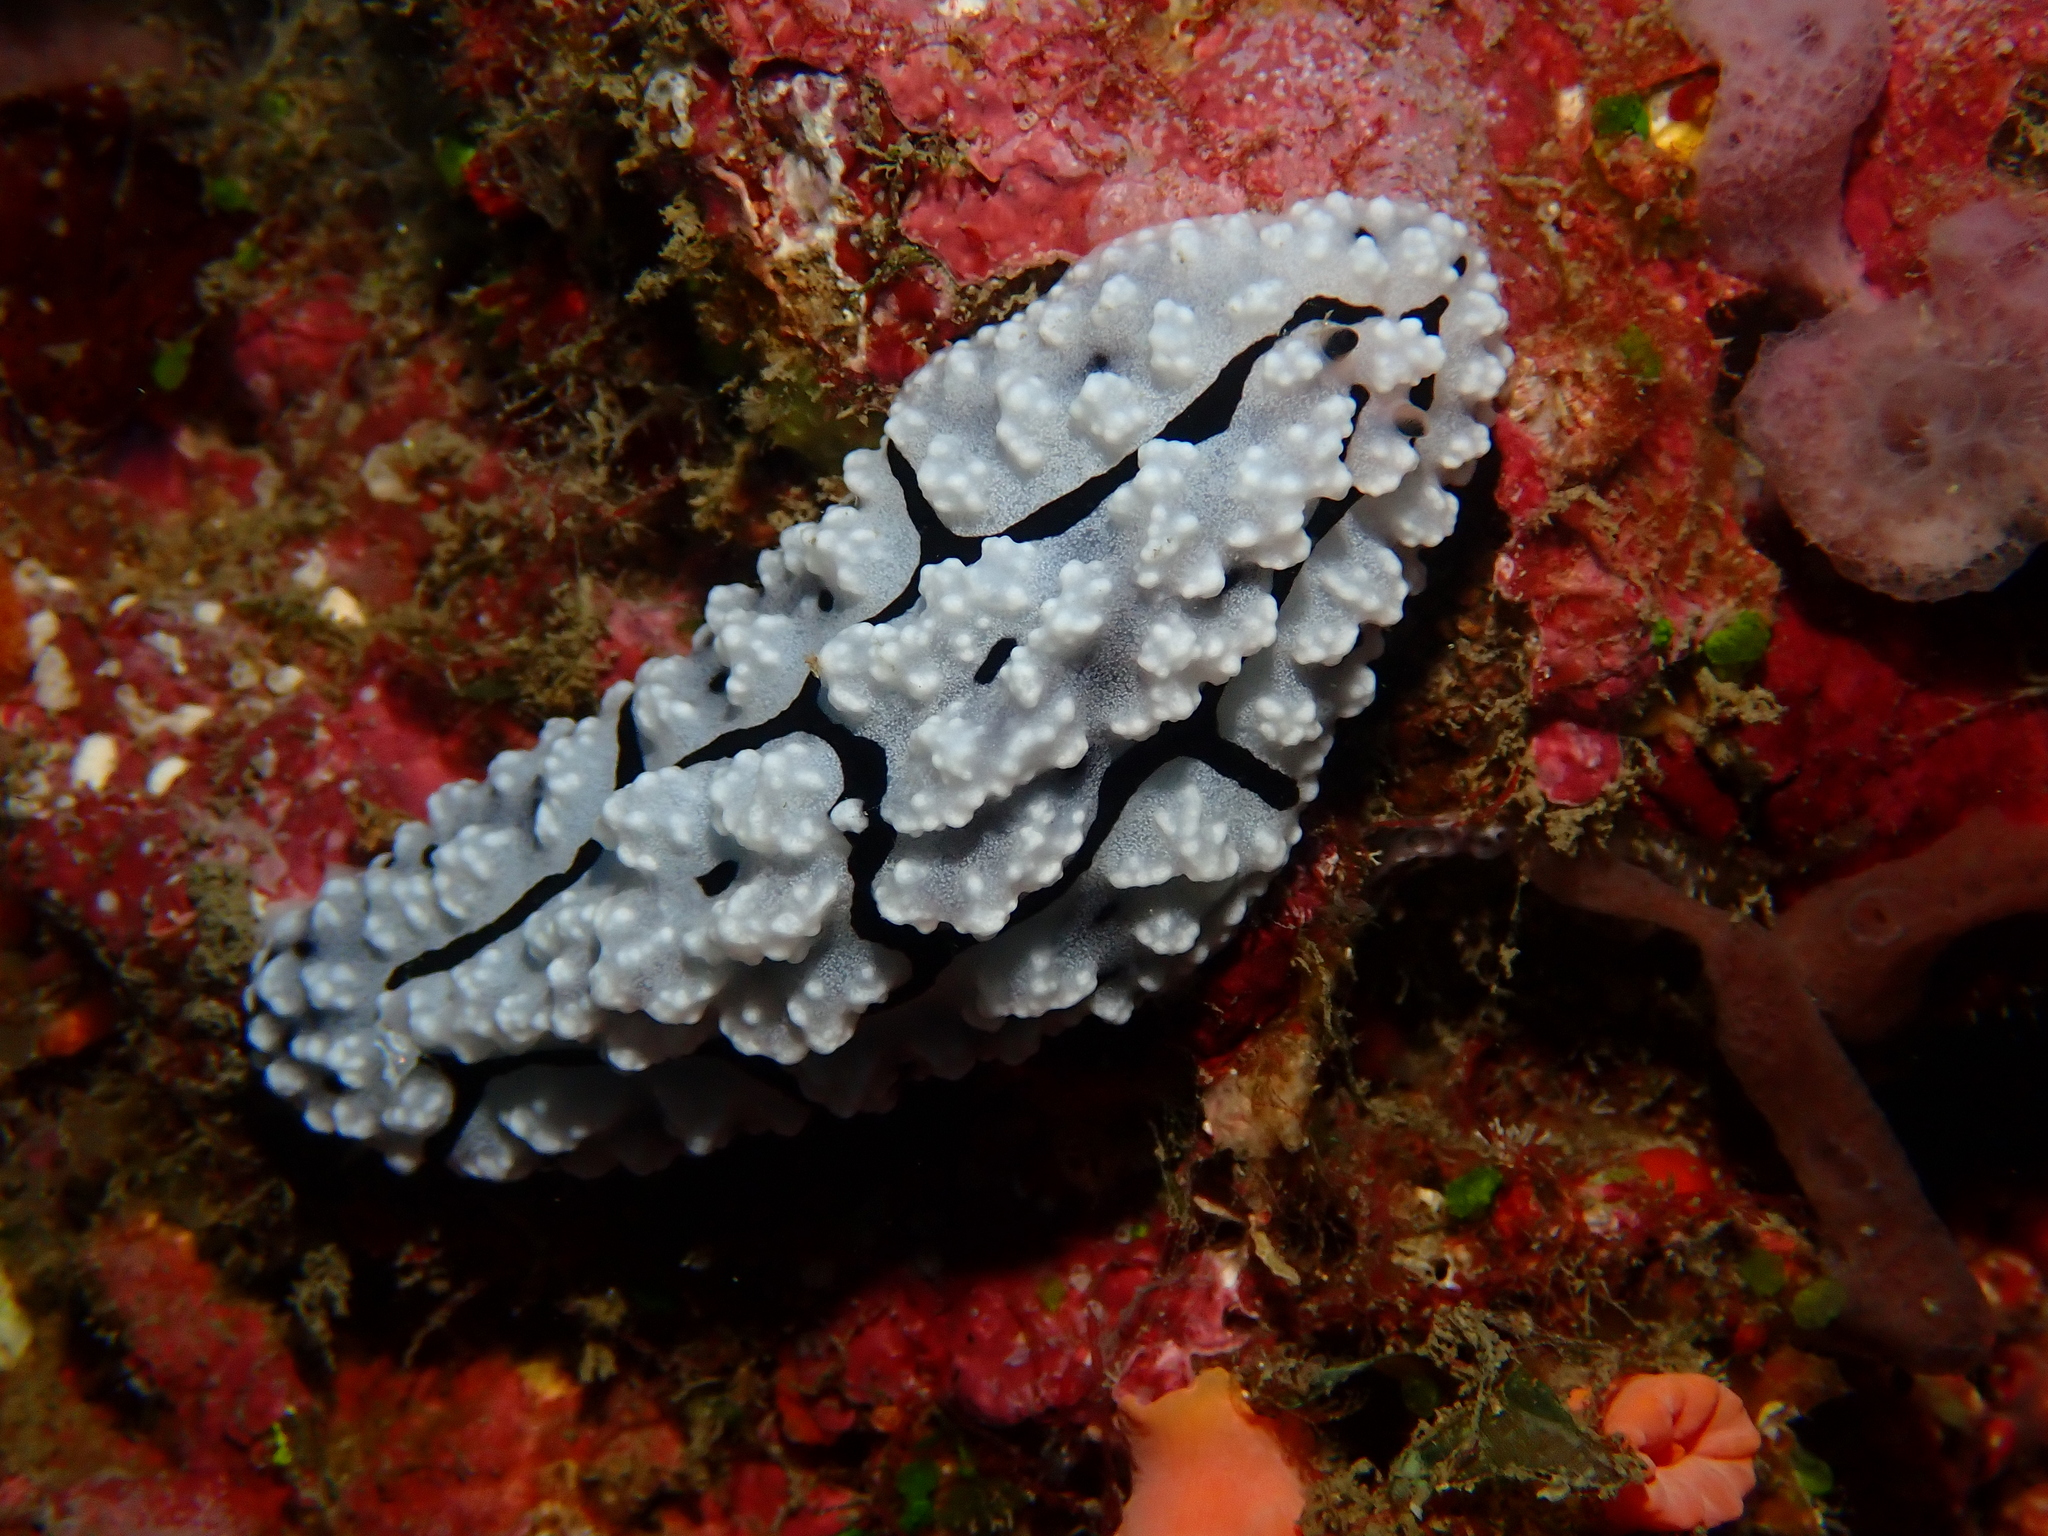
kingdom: Animalia
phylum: Mollusca
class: Gastropoda
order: Nudibranchia
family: Phyllidiidae
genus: Phyllidiopsis
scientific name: Phyllidiopsis krempfi
